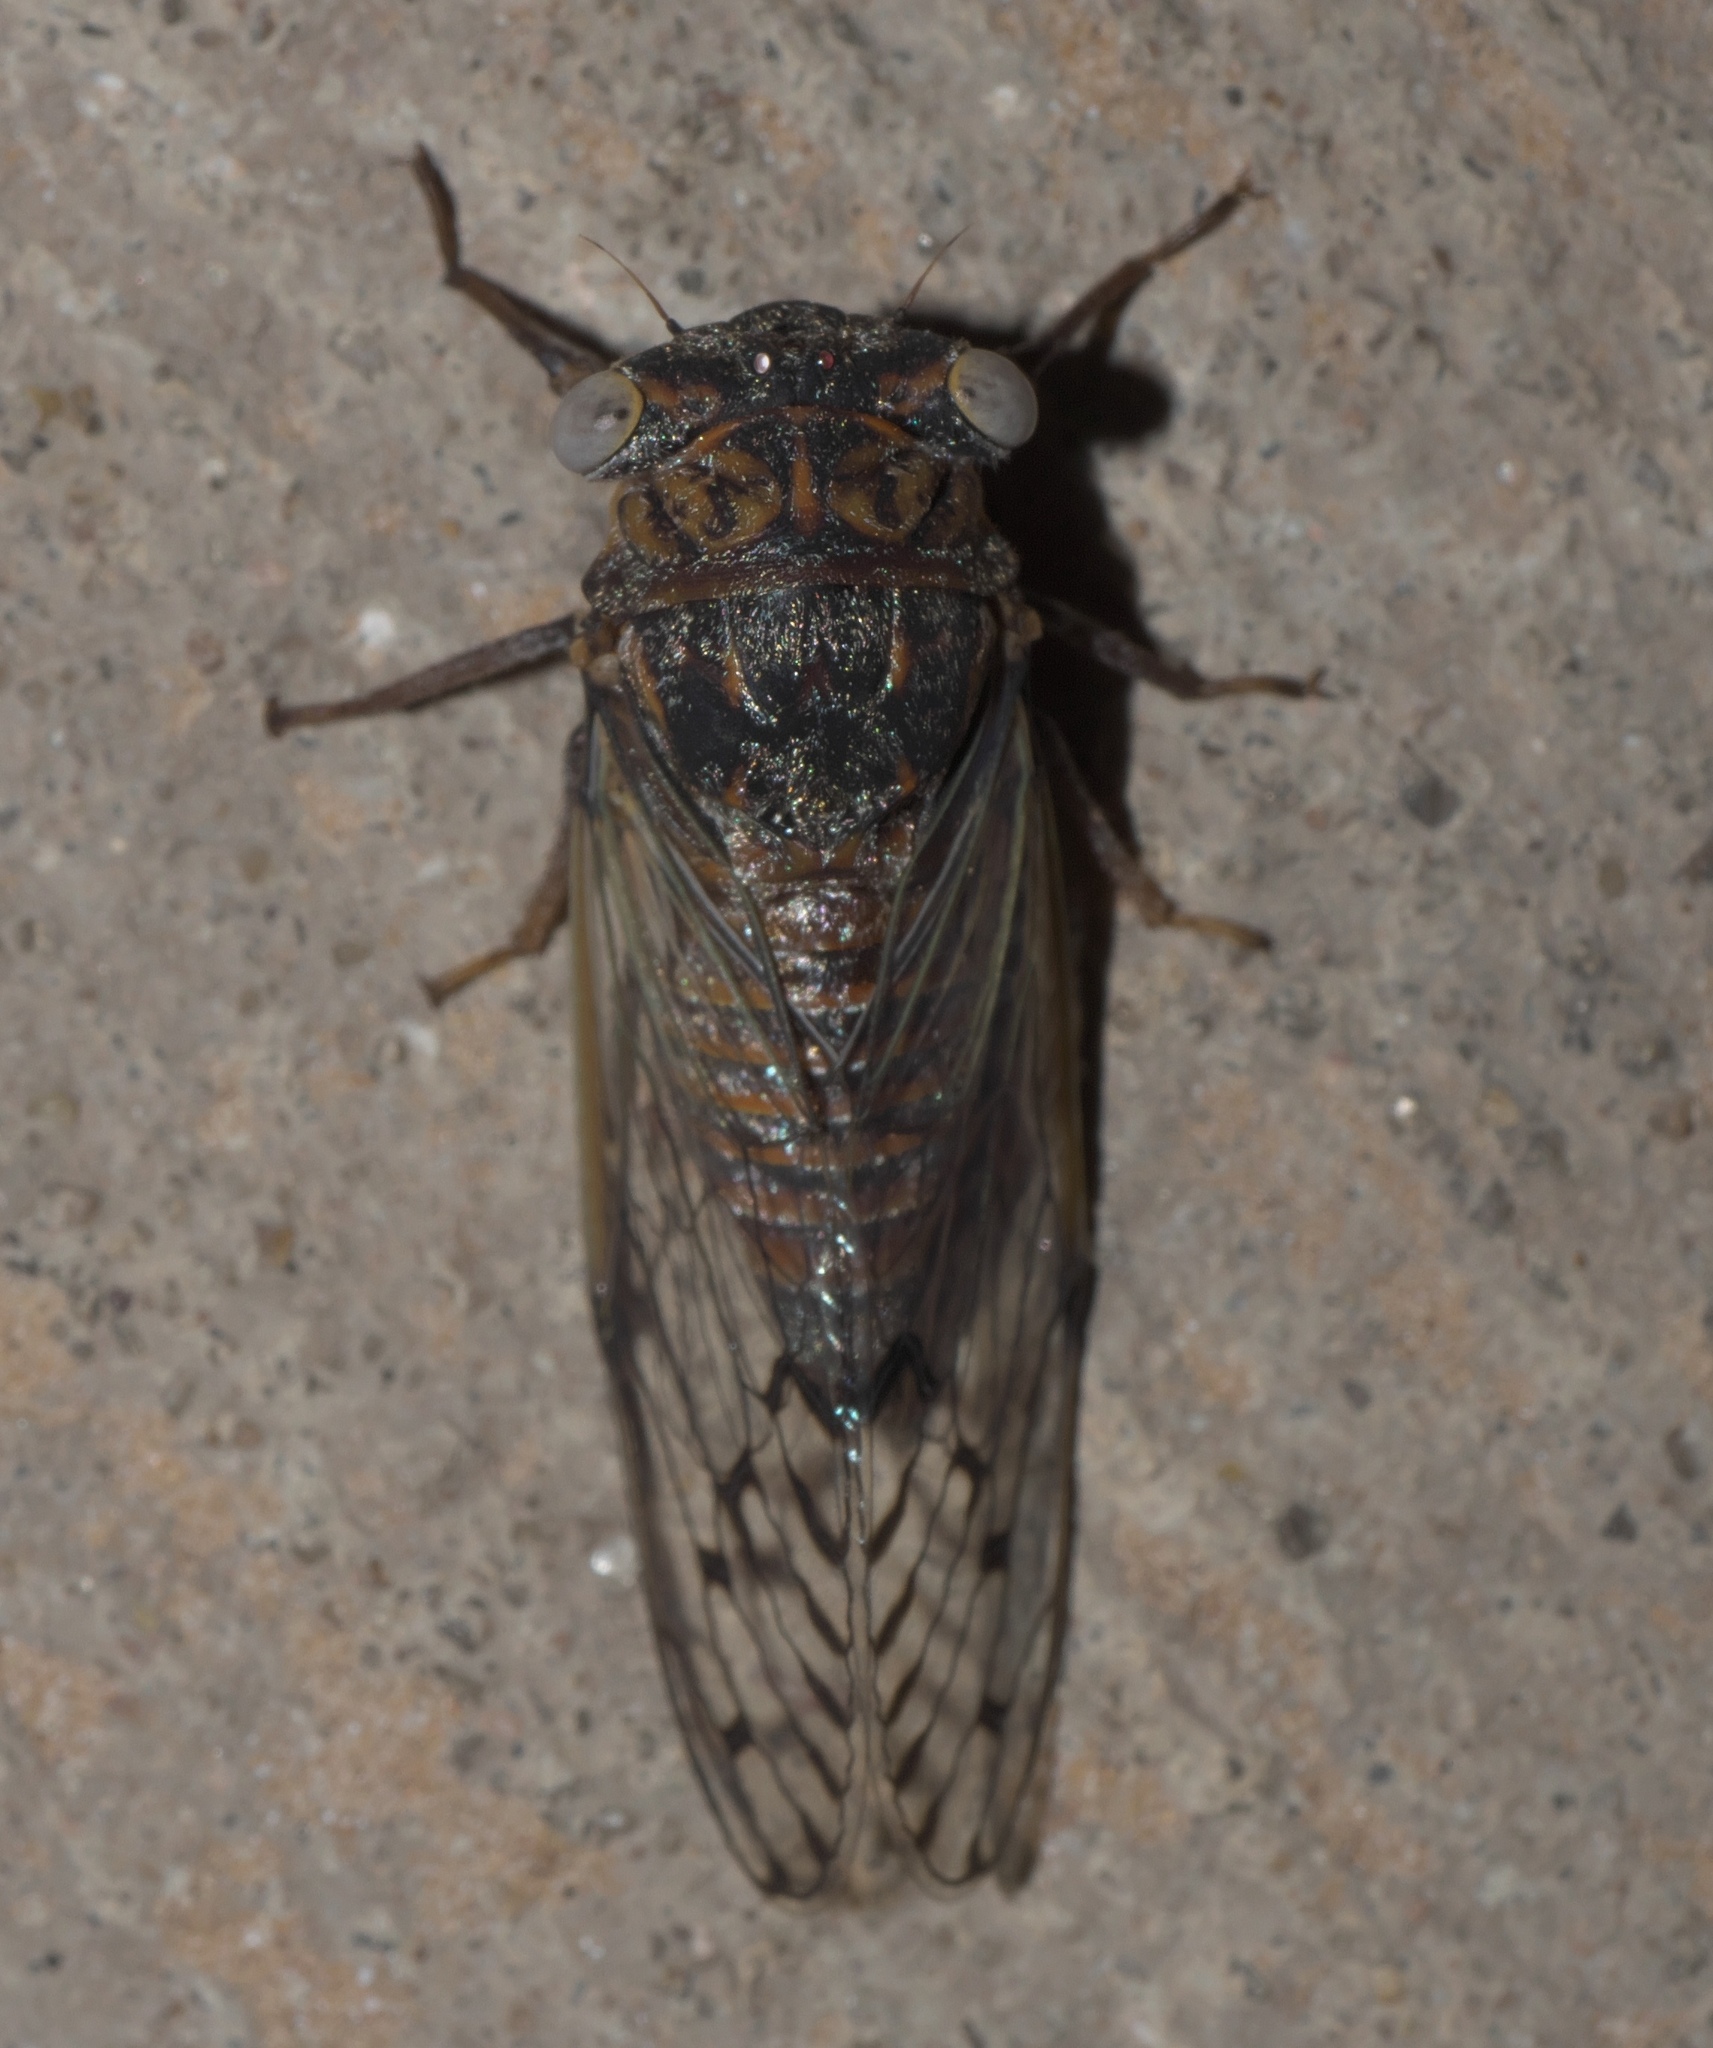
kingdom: Animalia
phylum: Arthropoda
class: Insecta
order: Hemiptera
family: Cicadidae
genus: Pacarina
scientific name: Pacarina puella
